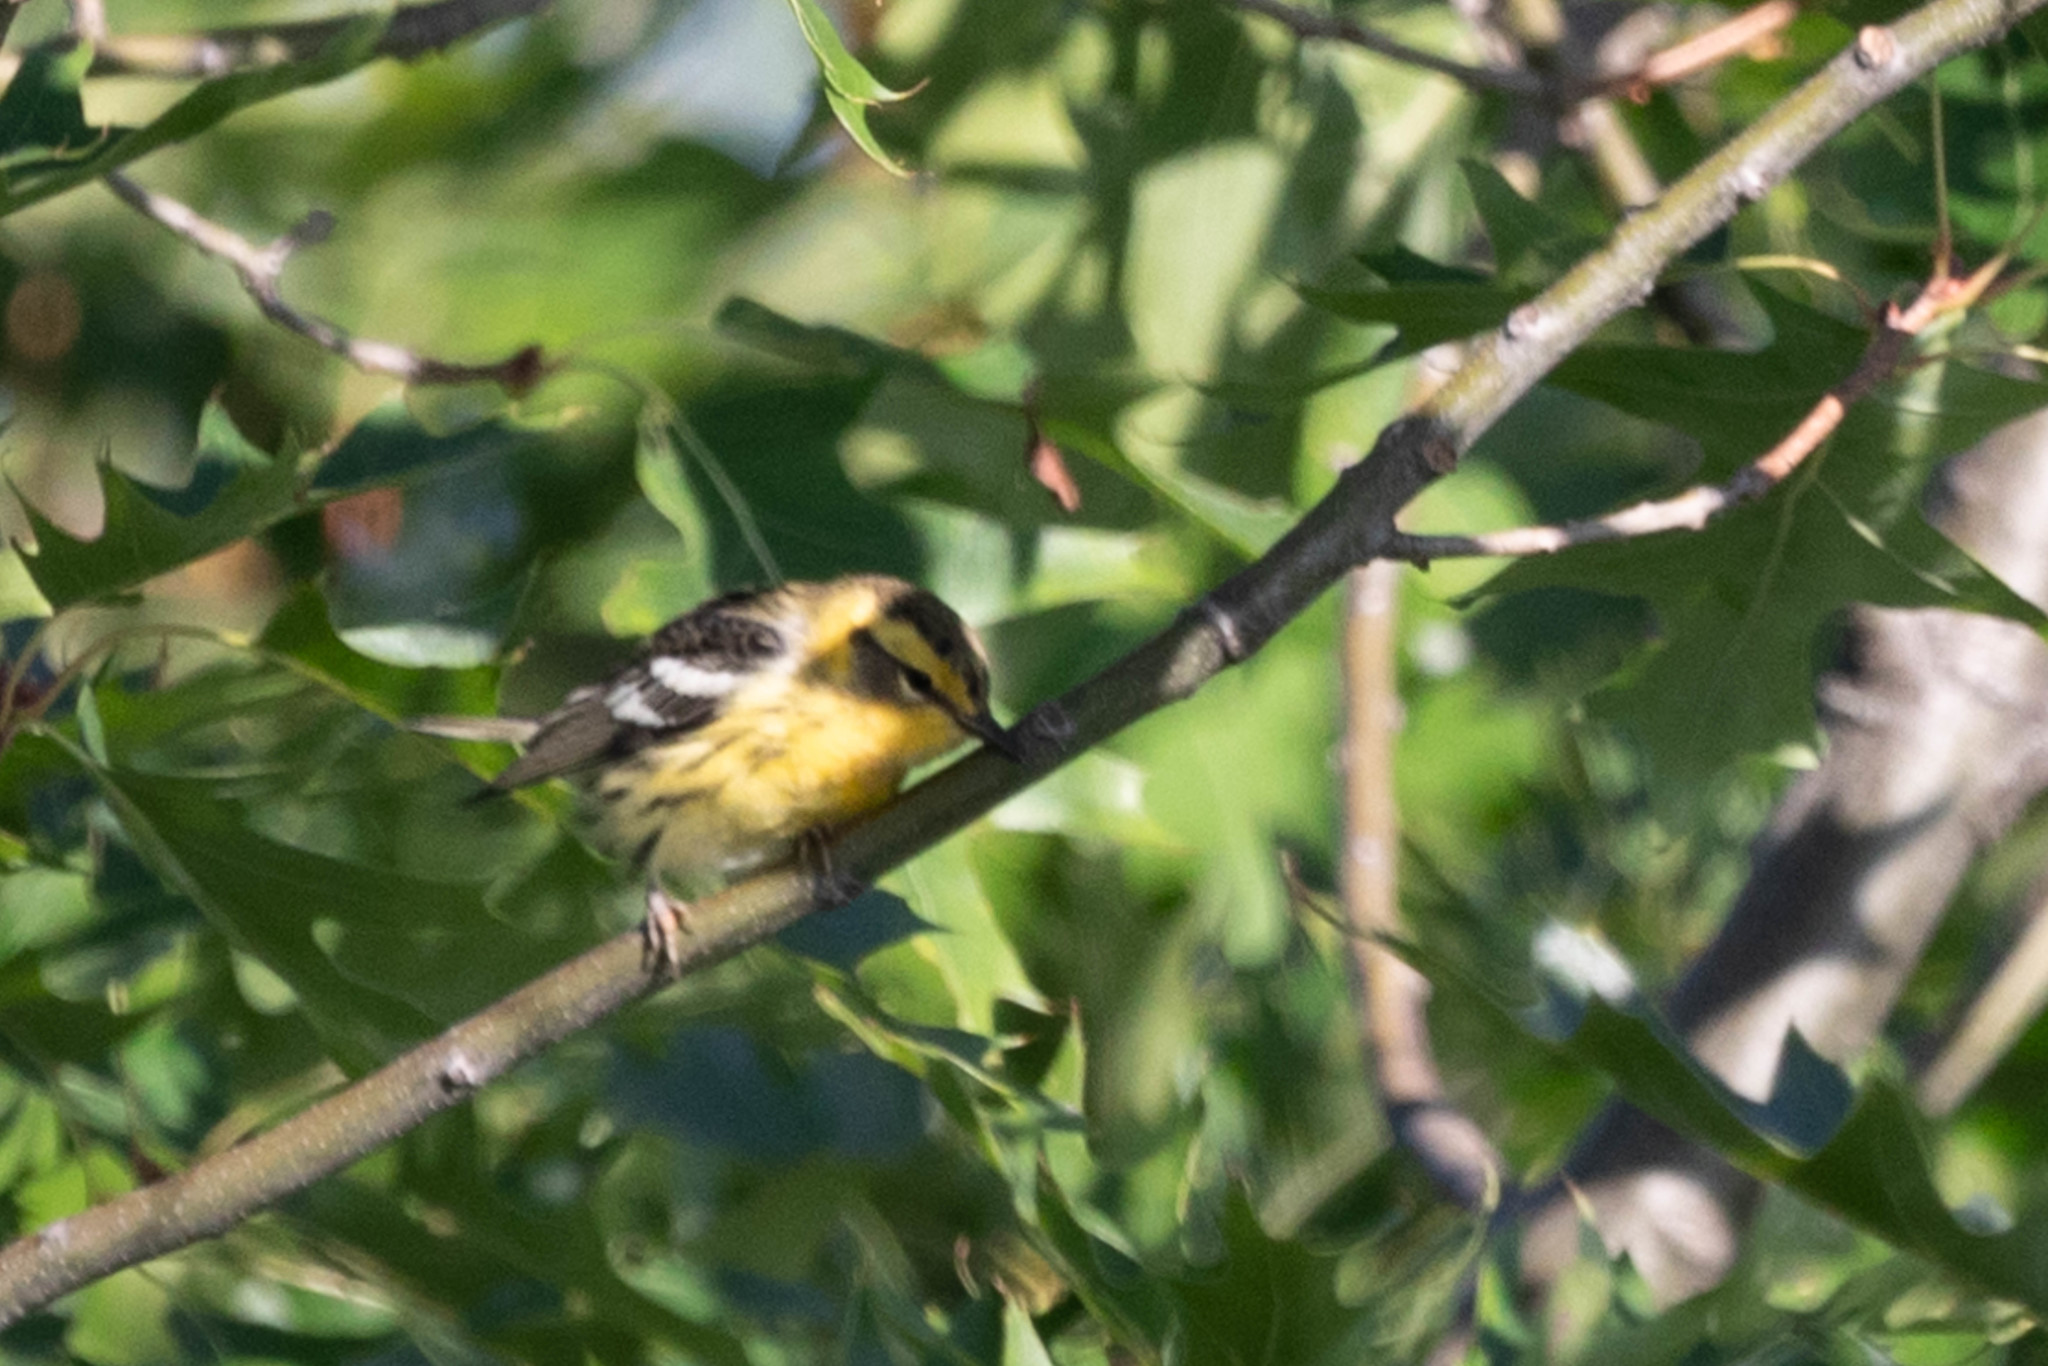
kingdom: Animalia
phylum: Chordata
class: Aves
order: Passeriformes
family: Parulidae
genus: Setophaga
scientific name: Setophaga fusca
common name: Blackburnian warbler
